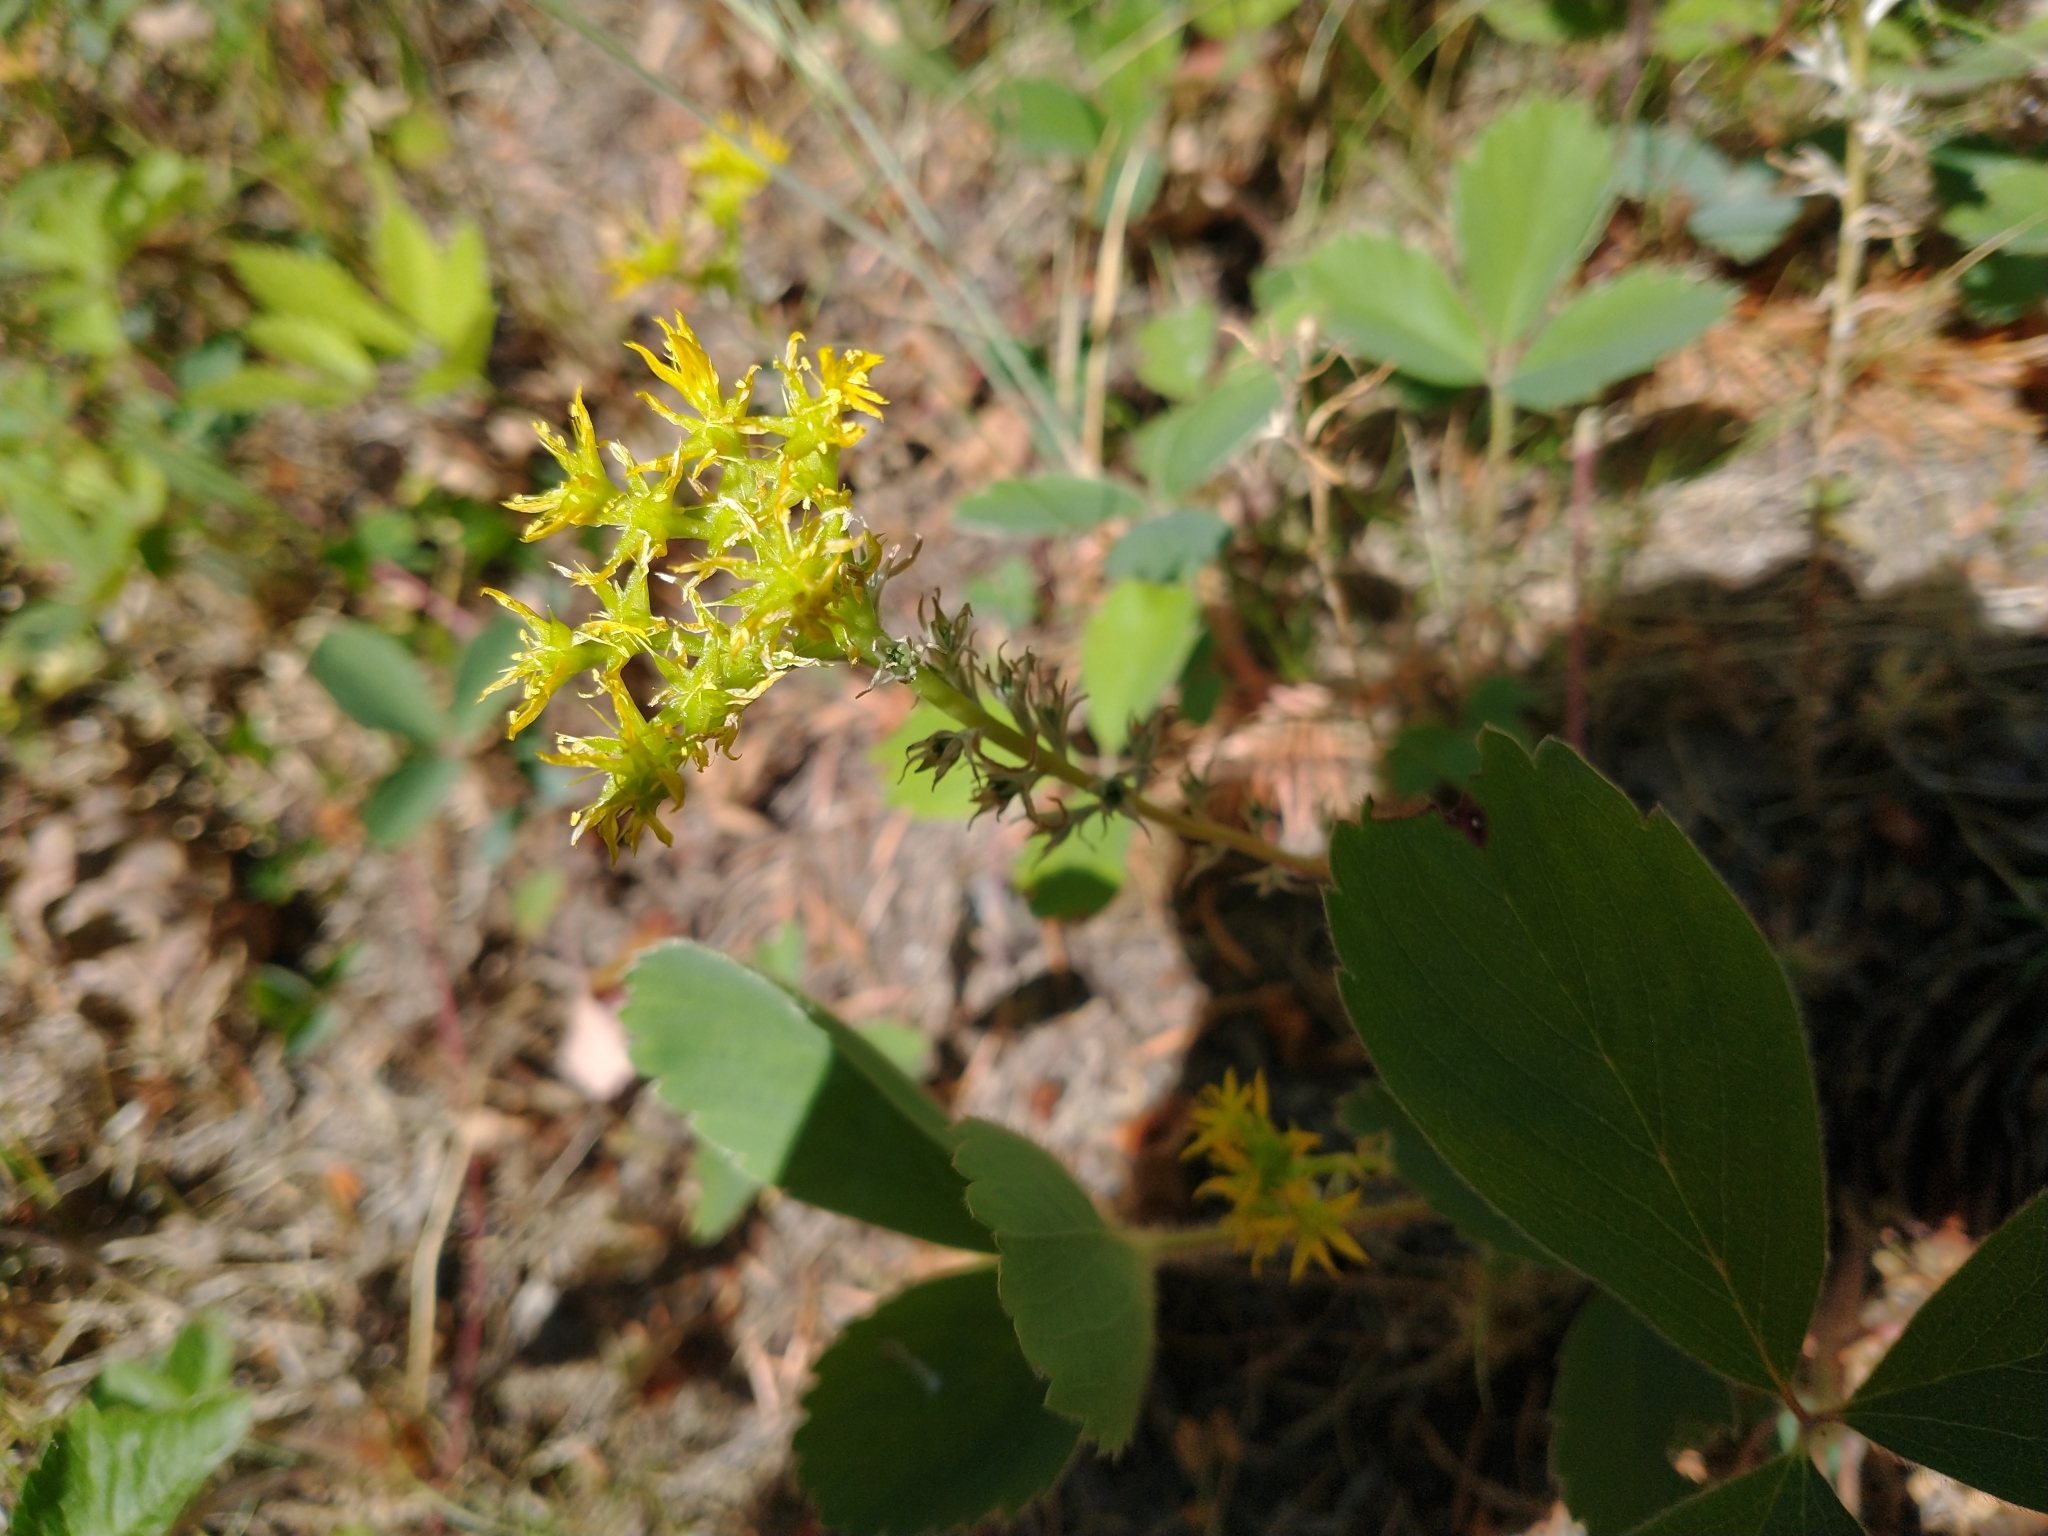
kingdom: Plantae
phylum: Tracheophyta
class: Magnoliopsida
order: Saxifragales
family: Crassulaceae
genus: Sedum
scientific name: Sedum stenopetalum
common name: Narrow-petaled stonecrop
